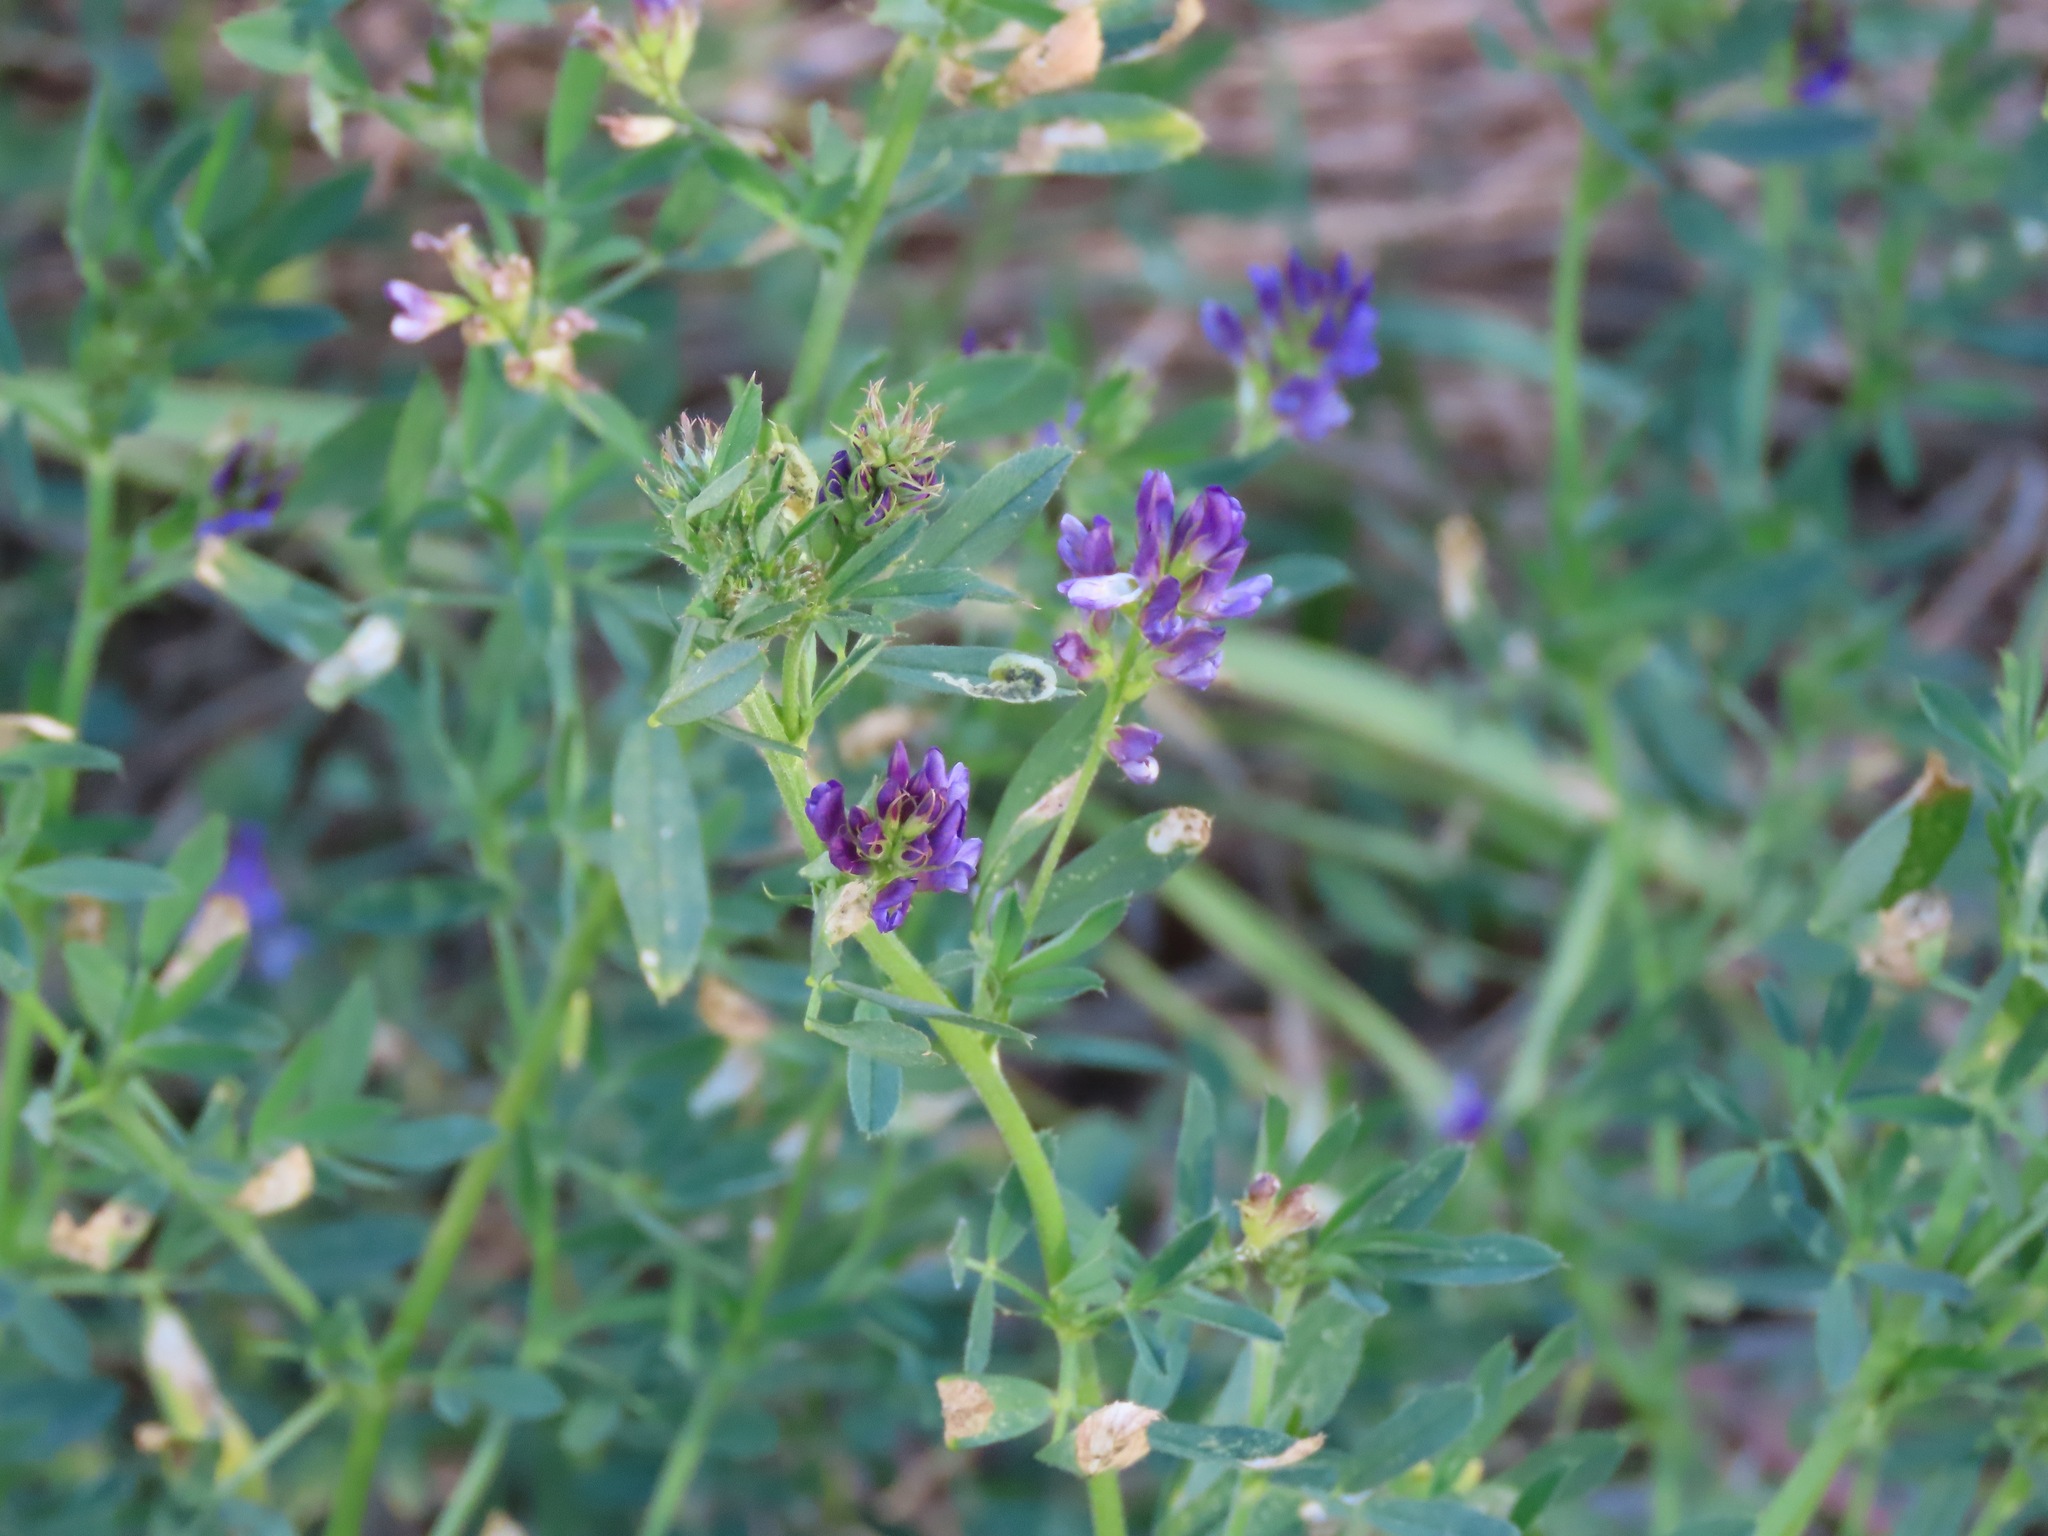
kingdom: Plantae
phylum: Tracheophyta
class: Magnoliopsida
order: Fabales
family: Fabaceae
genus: Medicago
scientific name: Medicago sativa
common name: Alfalfa
